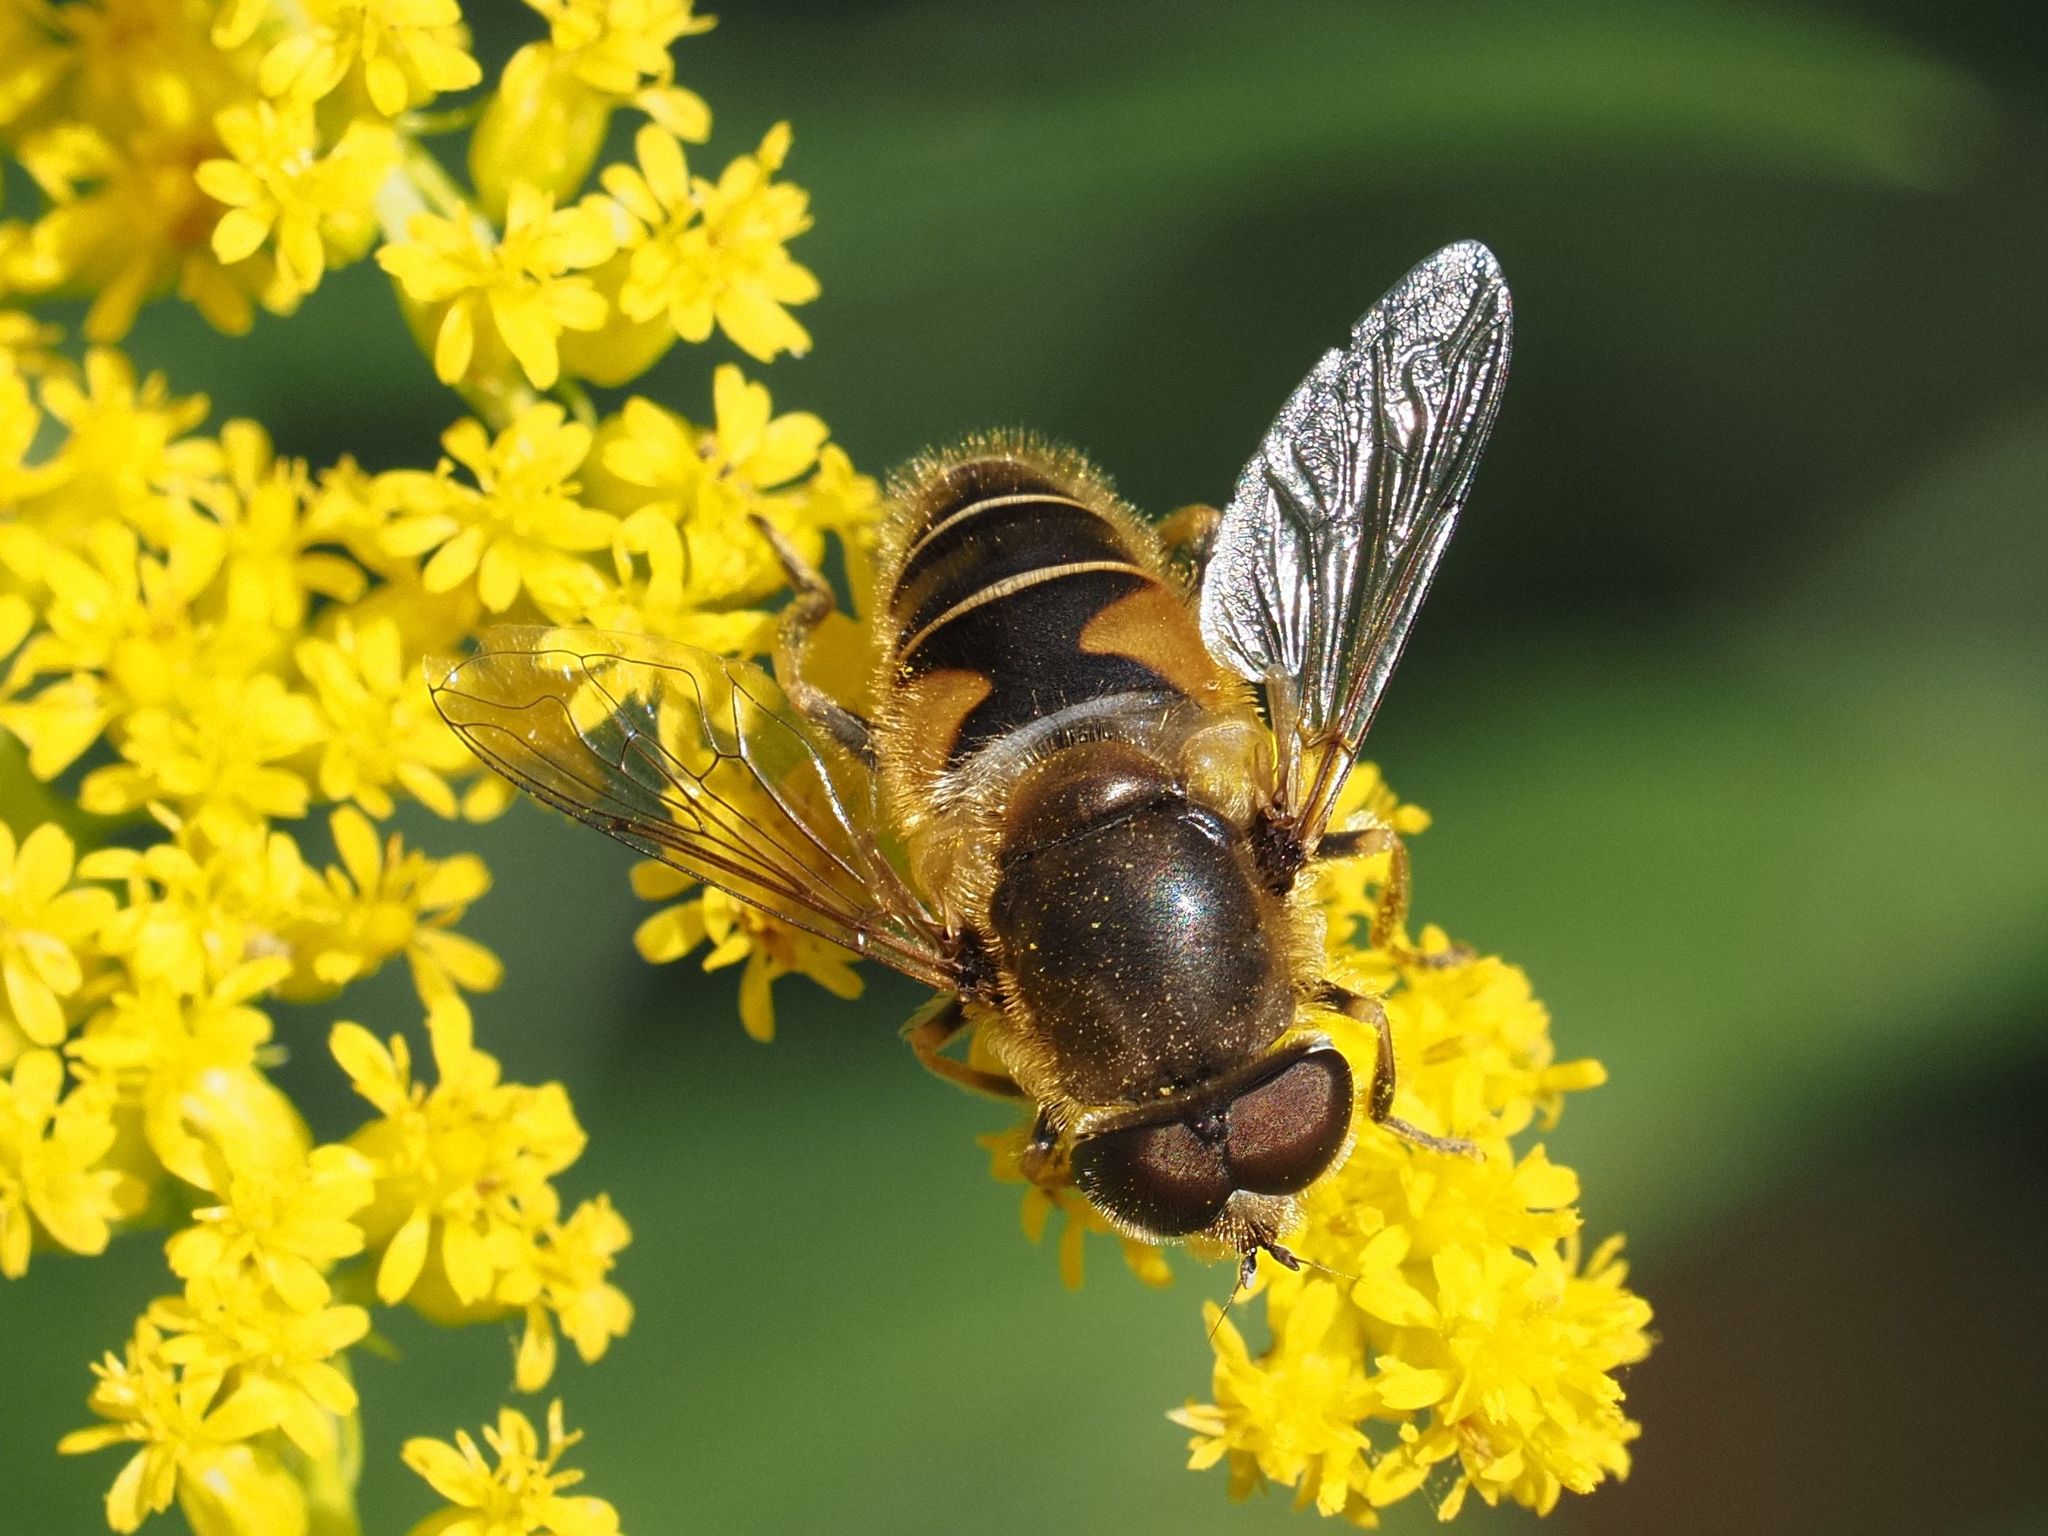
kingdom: Animalia
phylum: Arthropoda
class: Insecta
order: Diptera
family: Syrphidae
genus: Eristalis
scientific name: Eristalis nemorum
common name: Orange-spined drone fly
